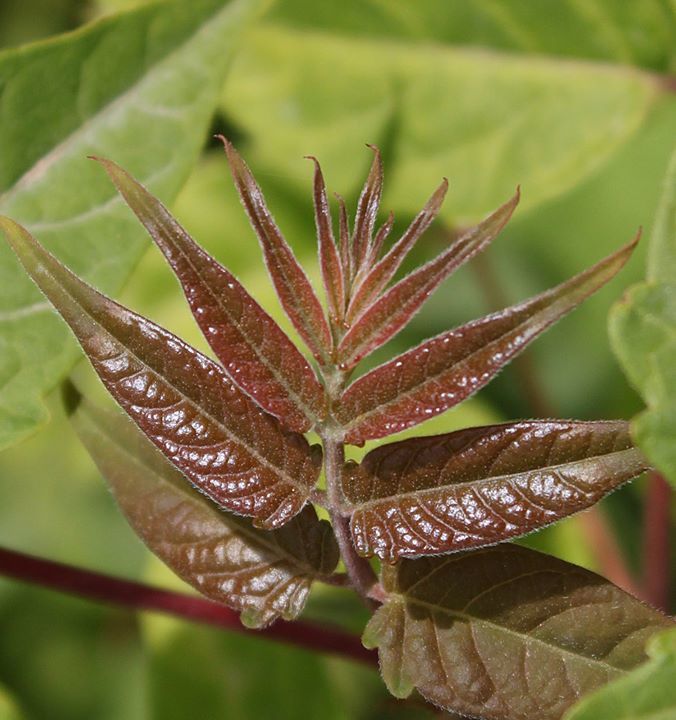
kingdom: Plantae
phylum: Tracheophyta
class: Magnoliopsida
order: Sapindales
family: Simaroubaceae
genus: Ailanthus
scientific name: Ailanthus altissima
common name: Tree-of-heaven
